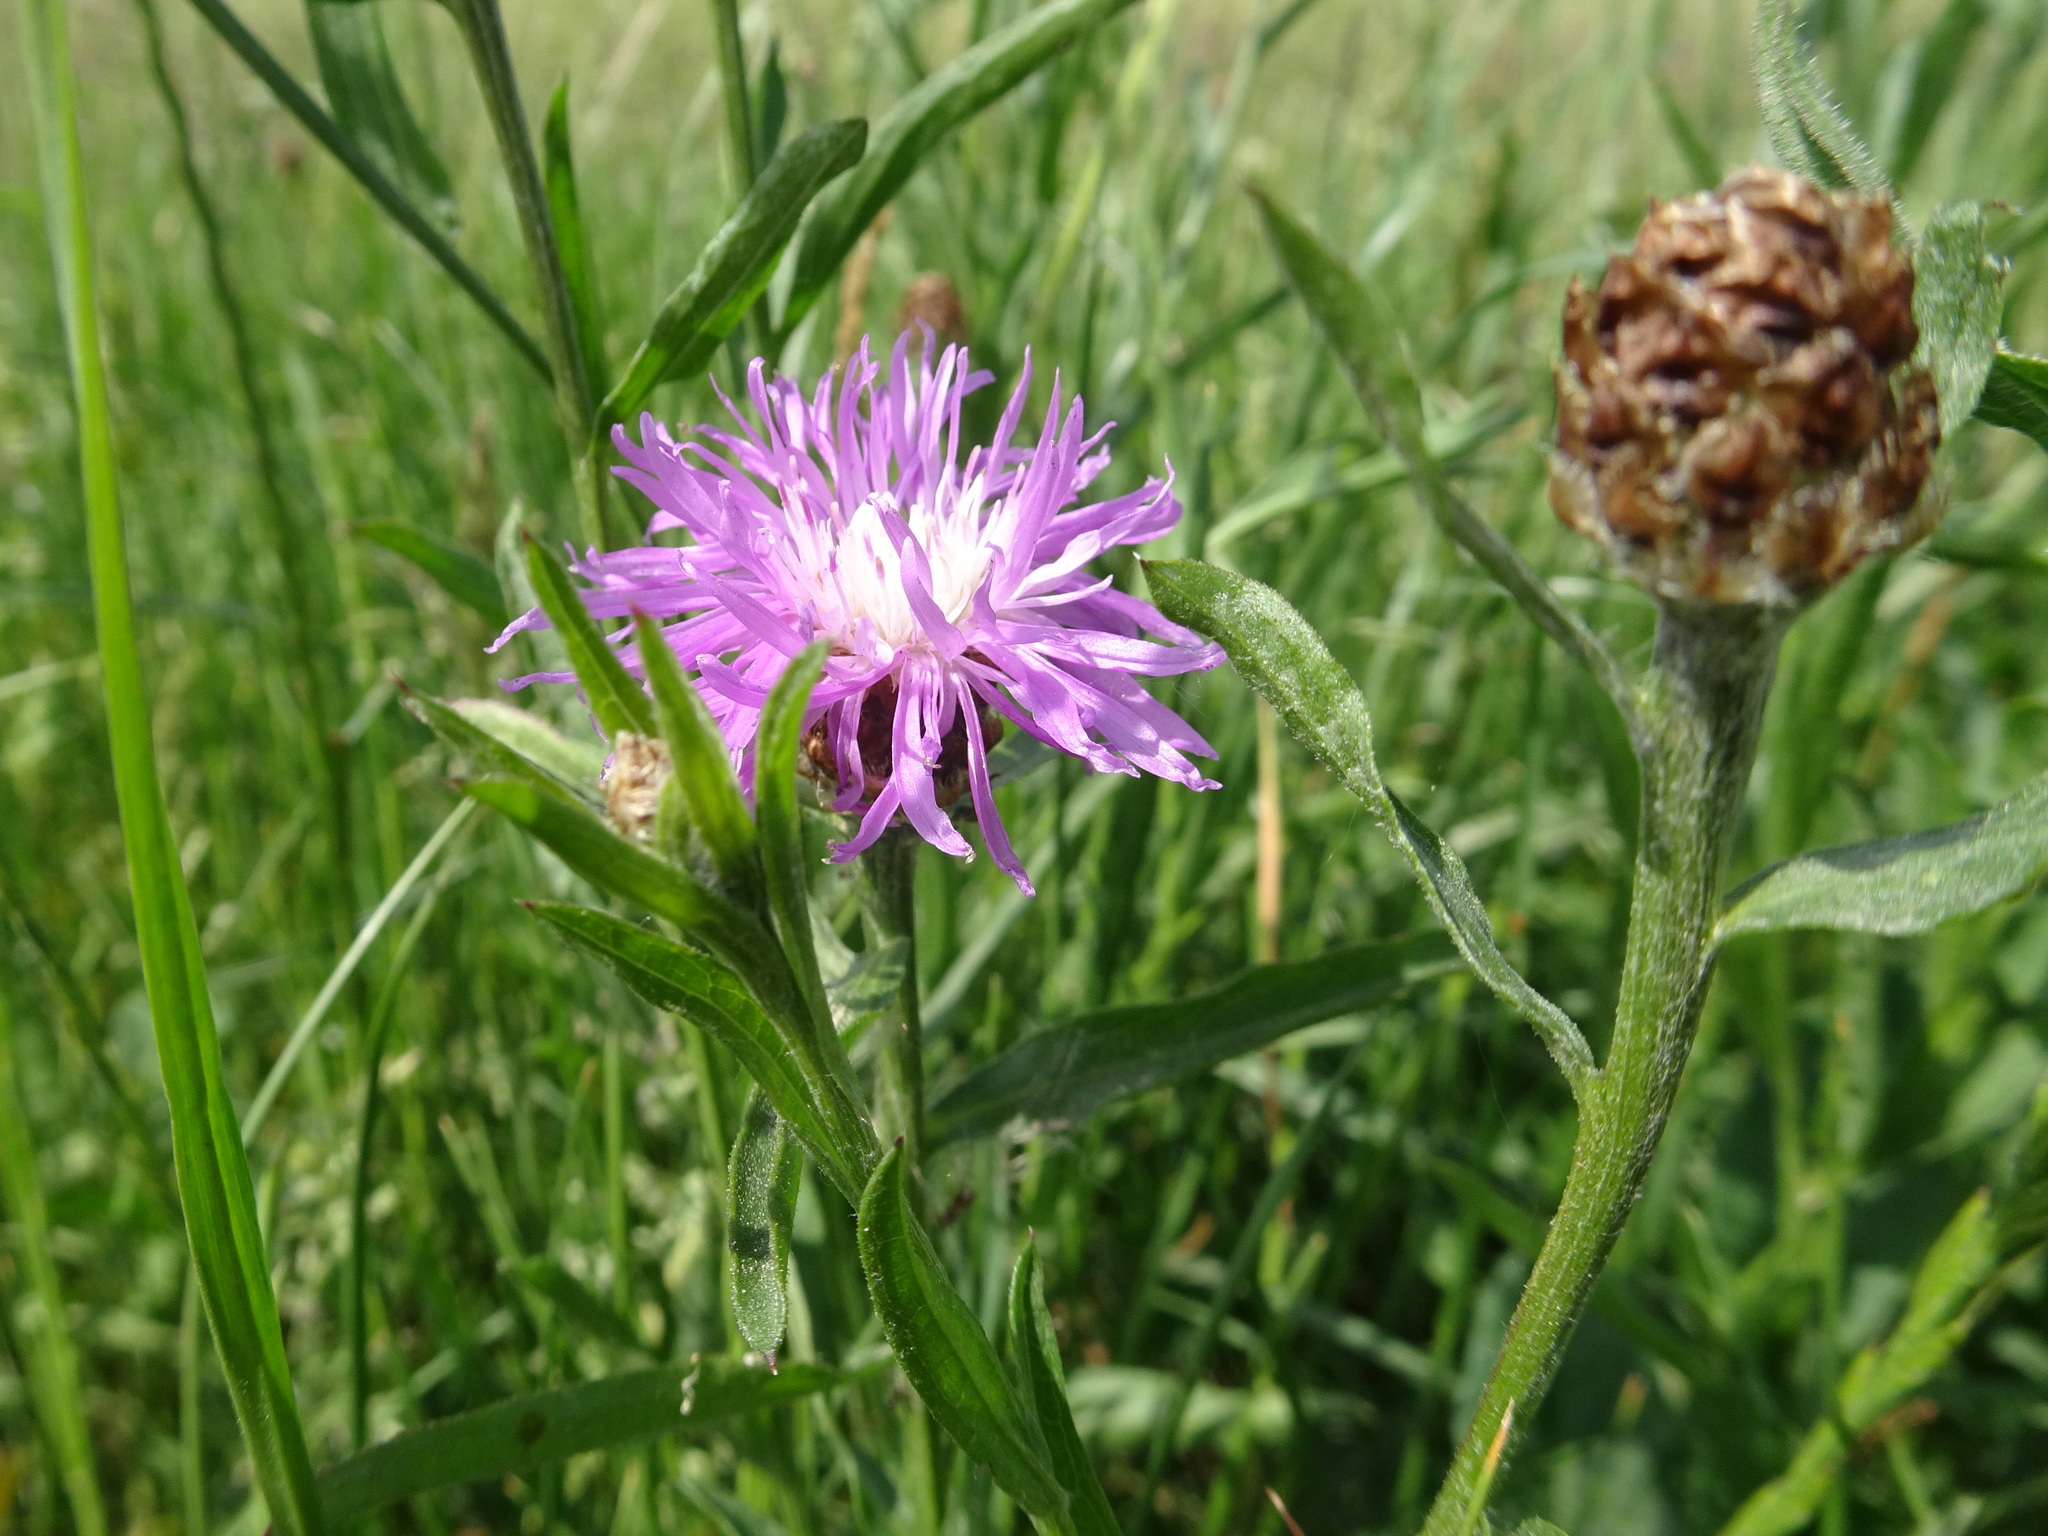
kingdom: Plantae
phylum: Tracheophyta
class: Magnoliopsida
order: Asterales
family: Asteraceae
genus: Centaurea
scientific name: Centaurea jacea
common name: Brown knapweed
